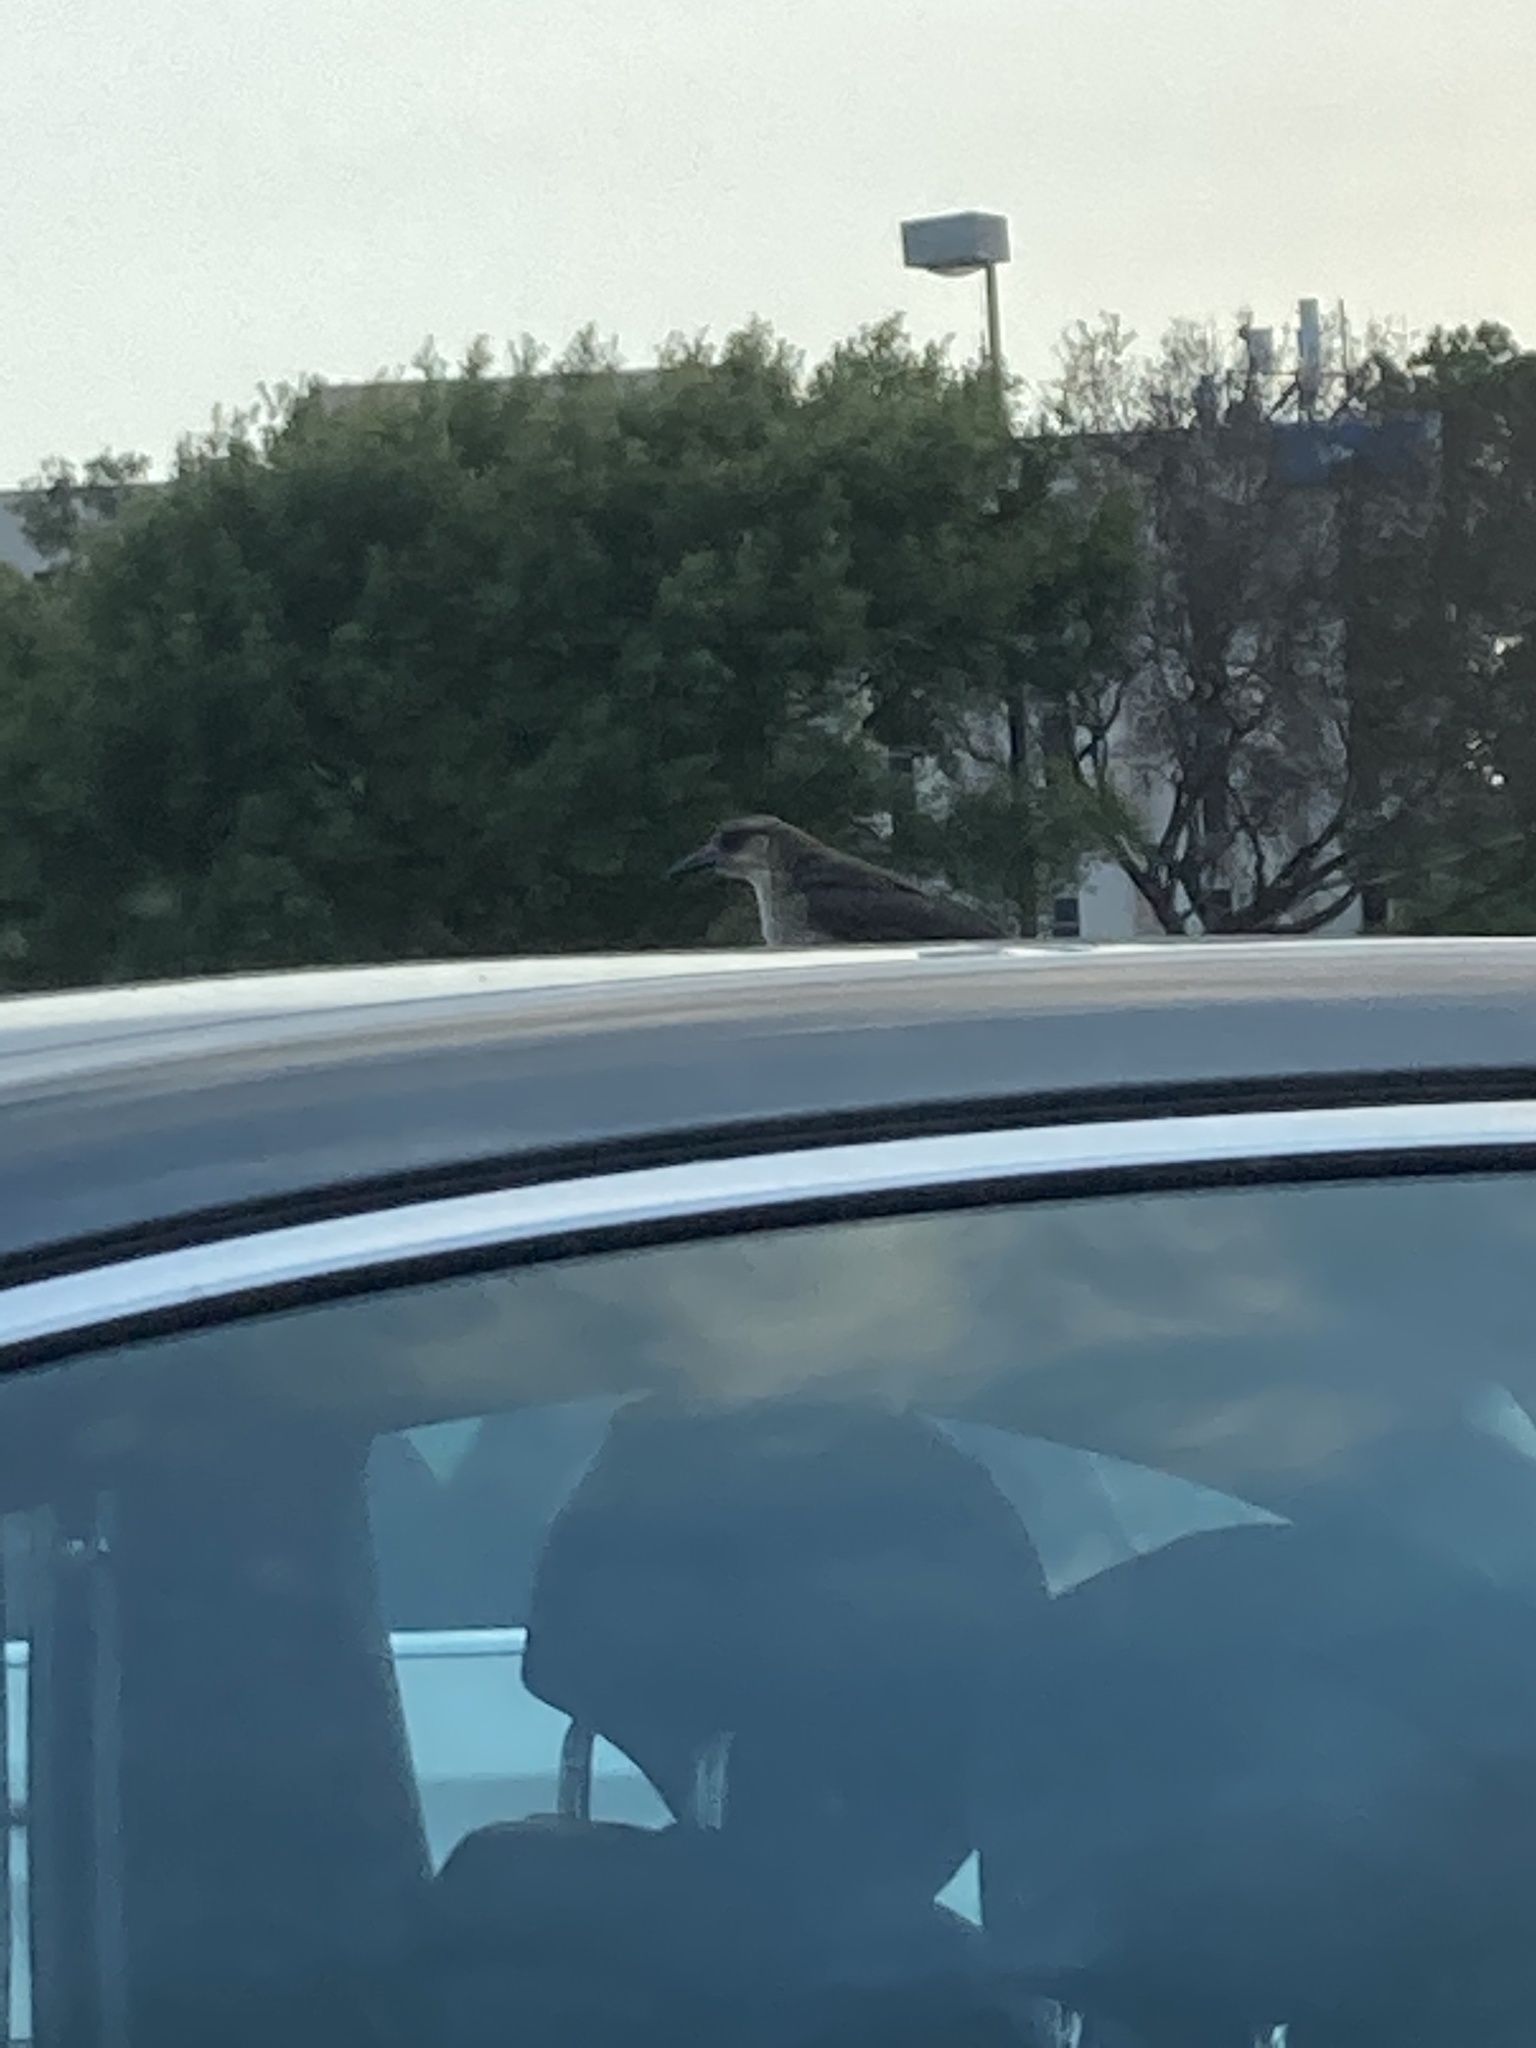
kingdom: Animalia
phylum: Chordata
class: Aves
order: Passeriformes
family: Icteridae
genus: Quiscalus
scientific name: Quiscalus mexicanus
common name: Great-tailed grackle
